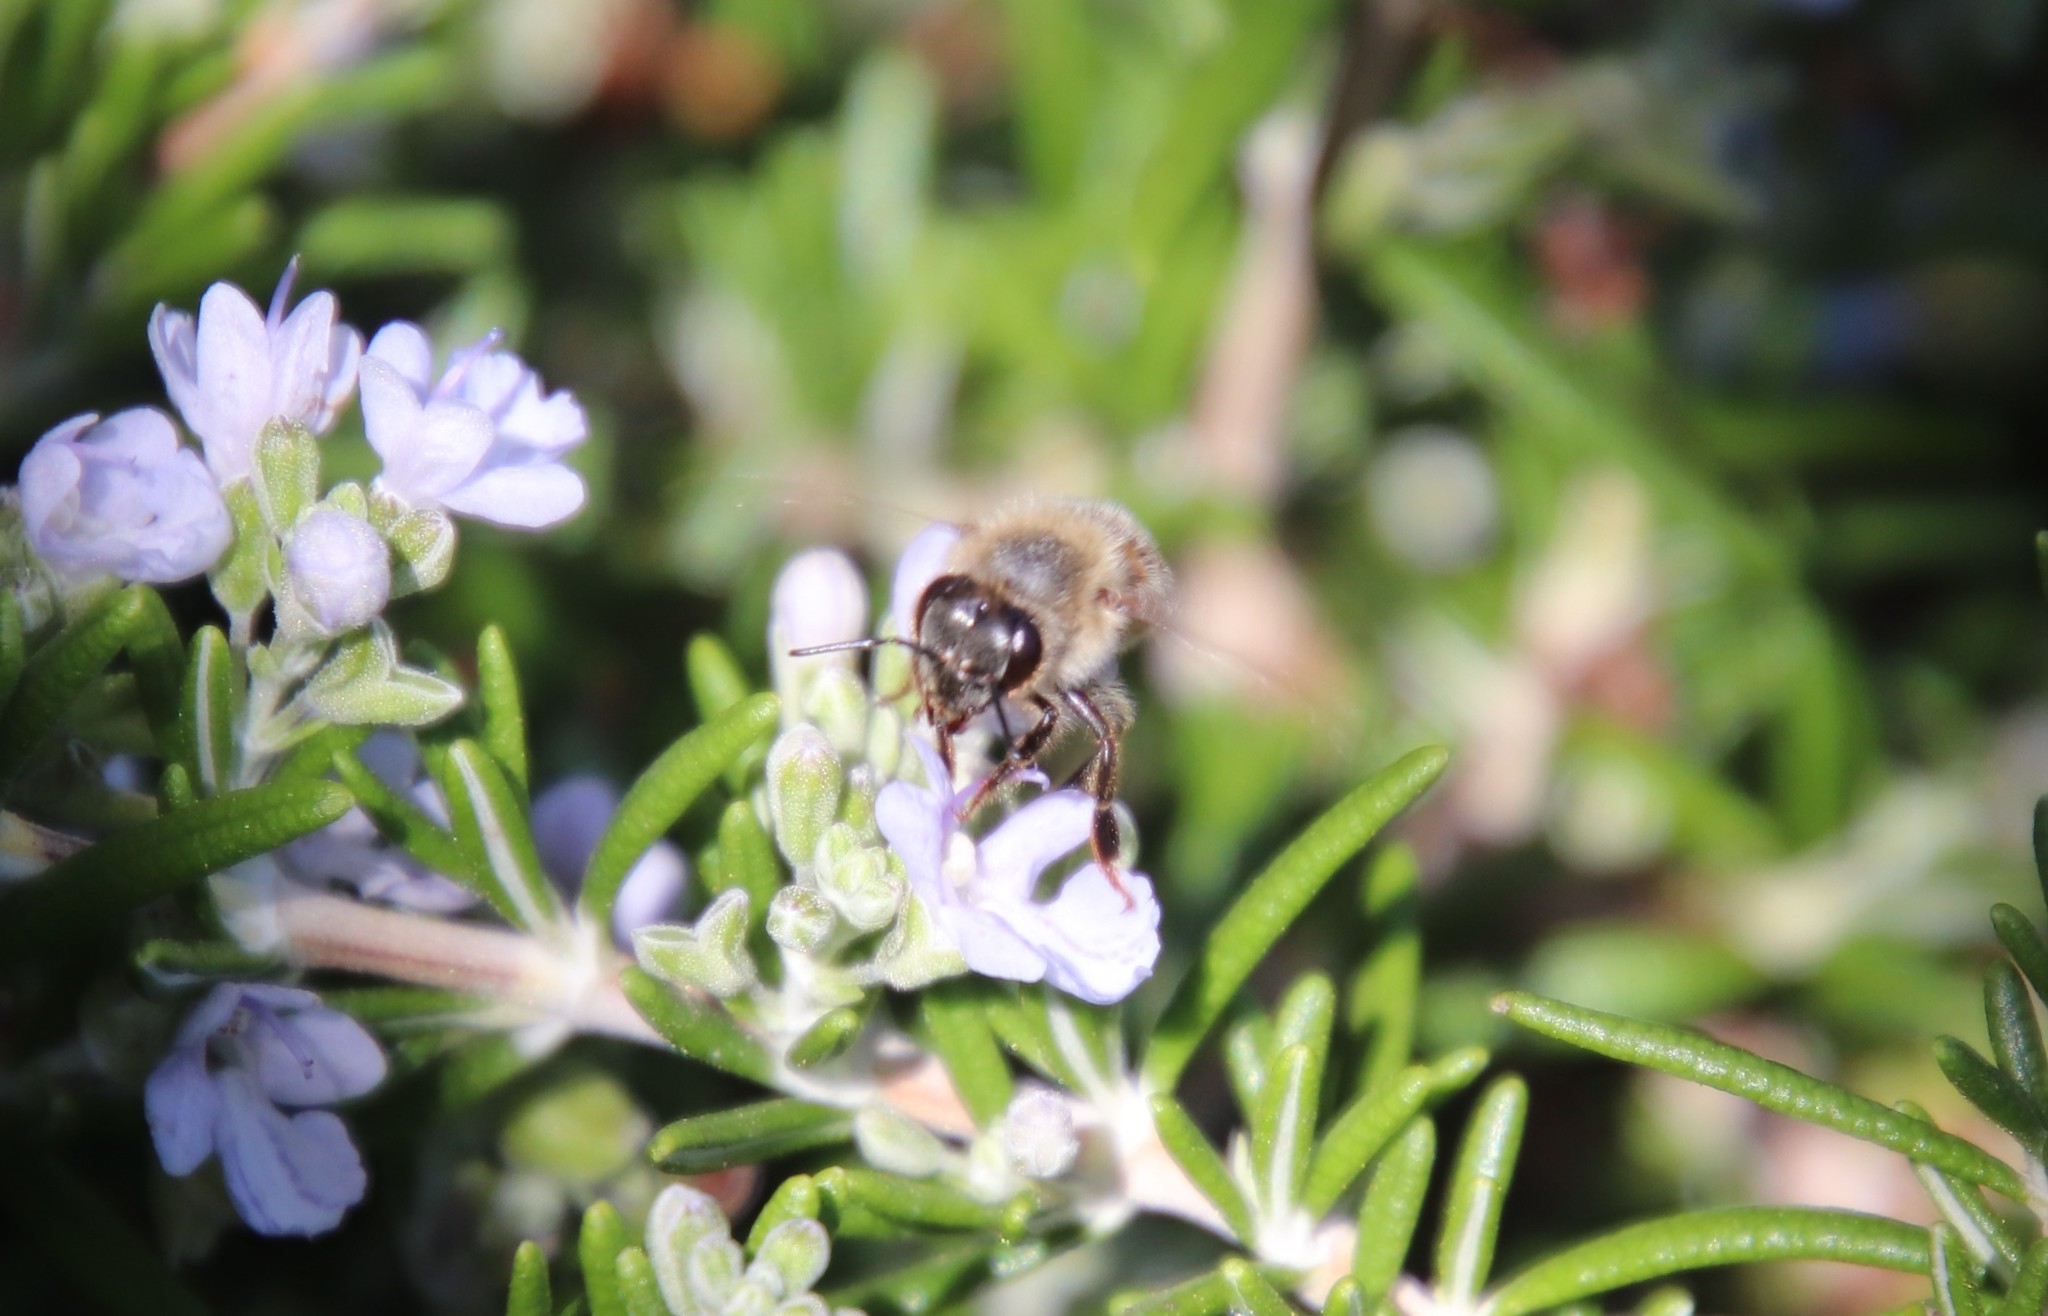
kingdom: Animalia
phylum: Arthropoda
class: Insecta
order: Hymenoptera
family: Apidae
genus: Apis
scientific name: Apis mellifera
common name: Honey bee
